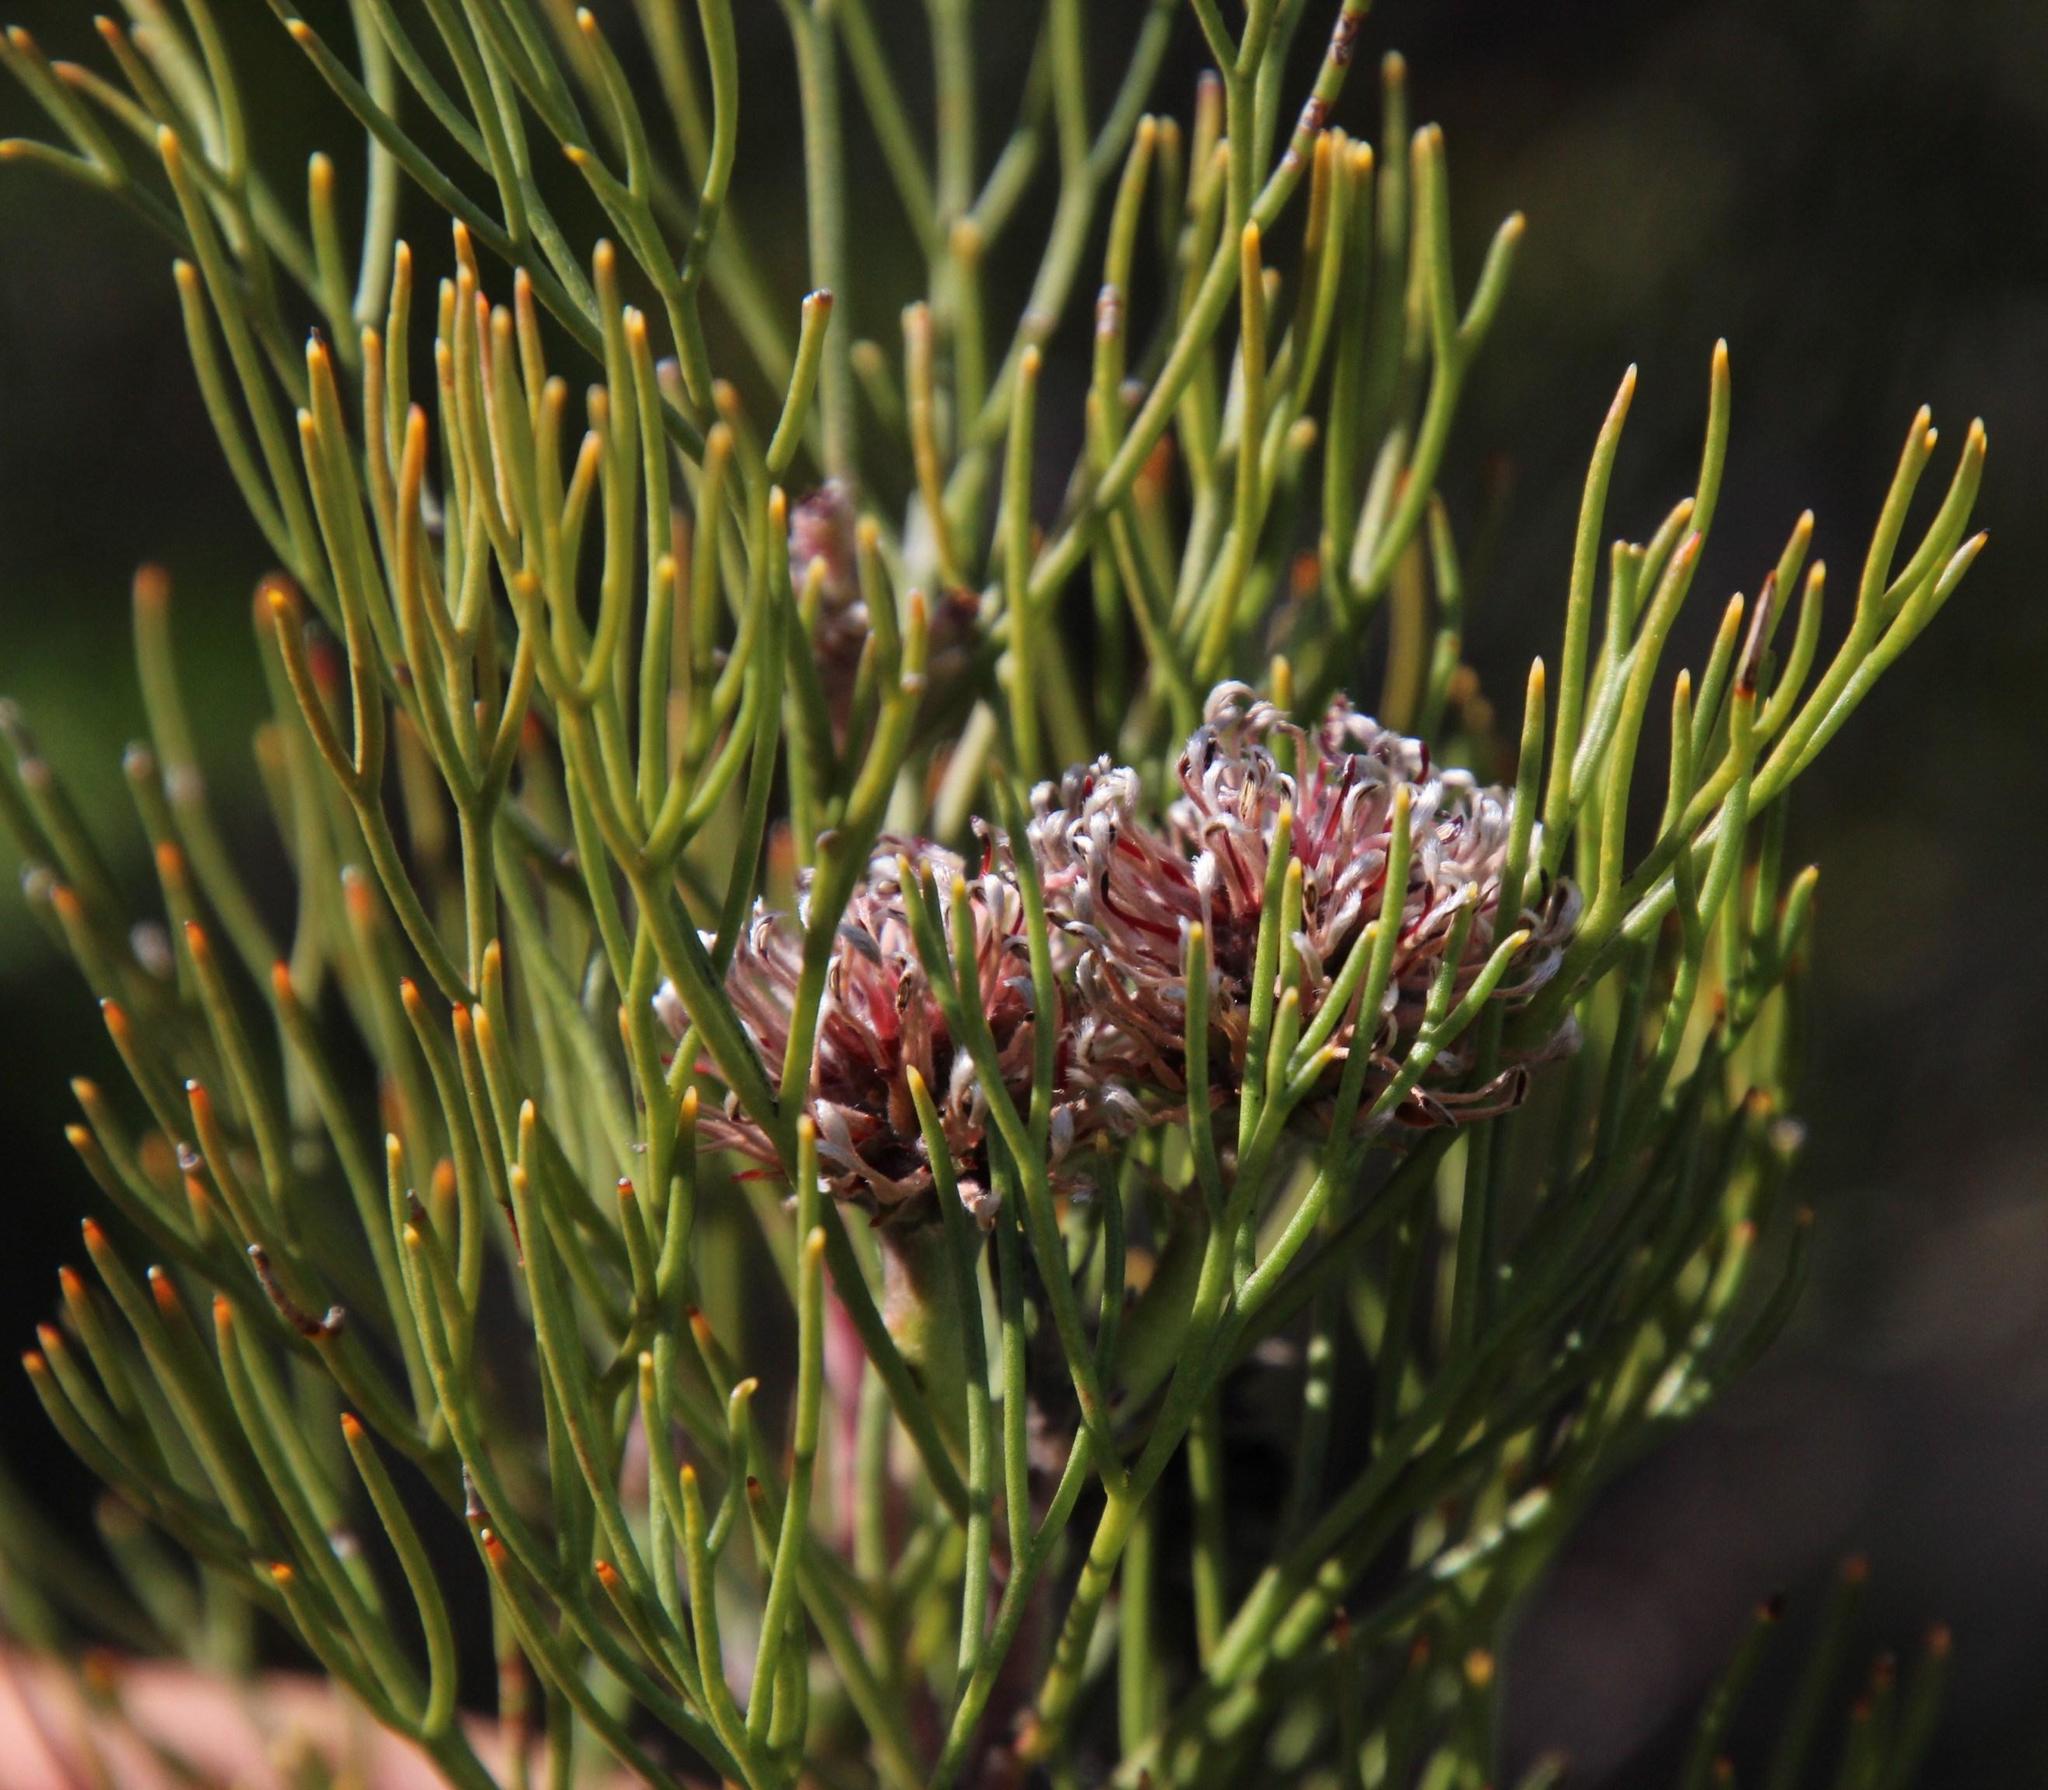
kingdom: Plantae
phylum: Tracheophyta
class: Magnoliopsida
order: Proteales
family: Proteaceae
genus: Serruria
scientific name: Serruria fucifolia
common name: Northern spiderhead
